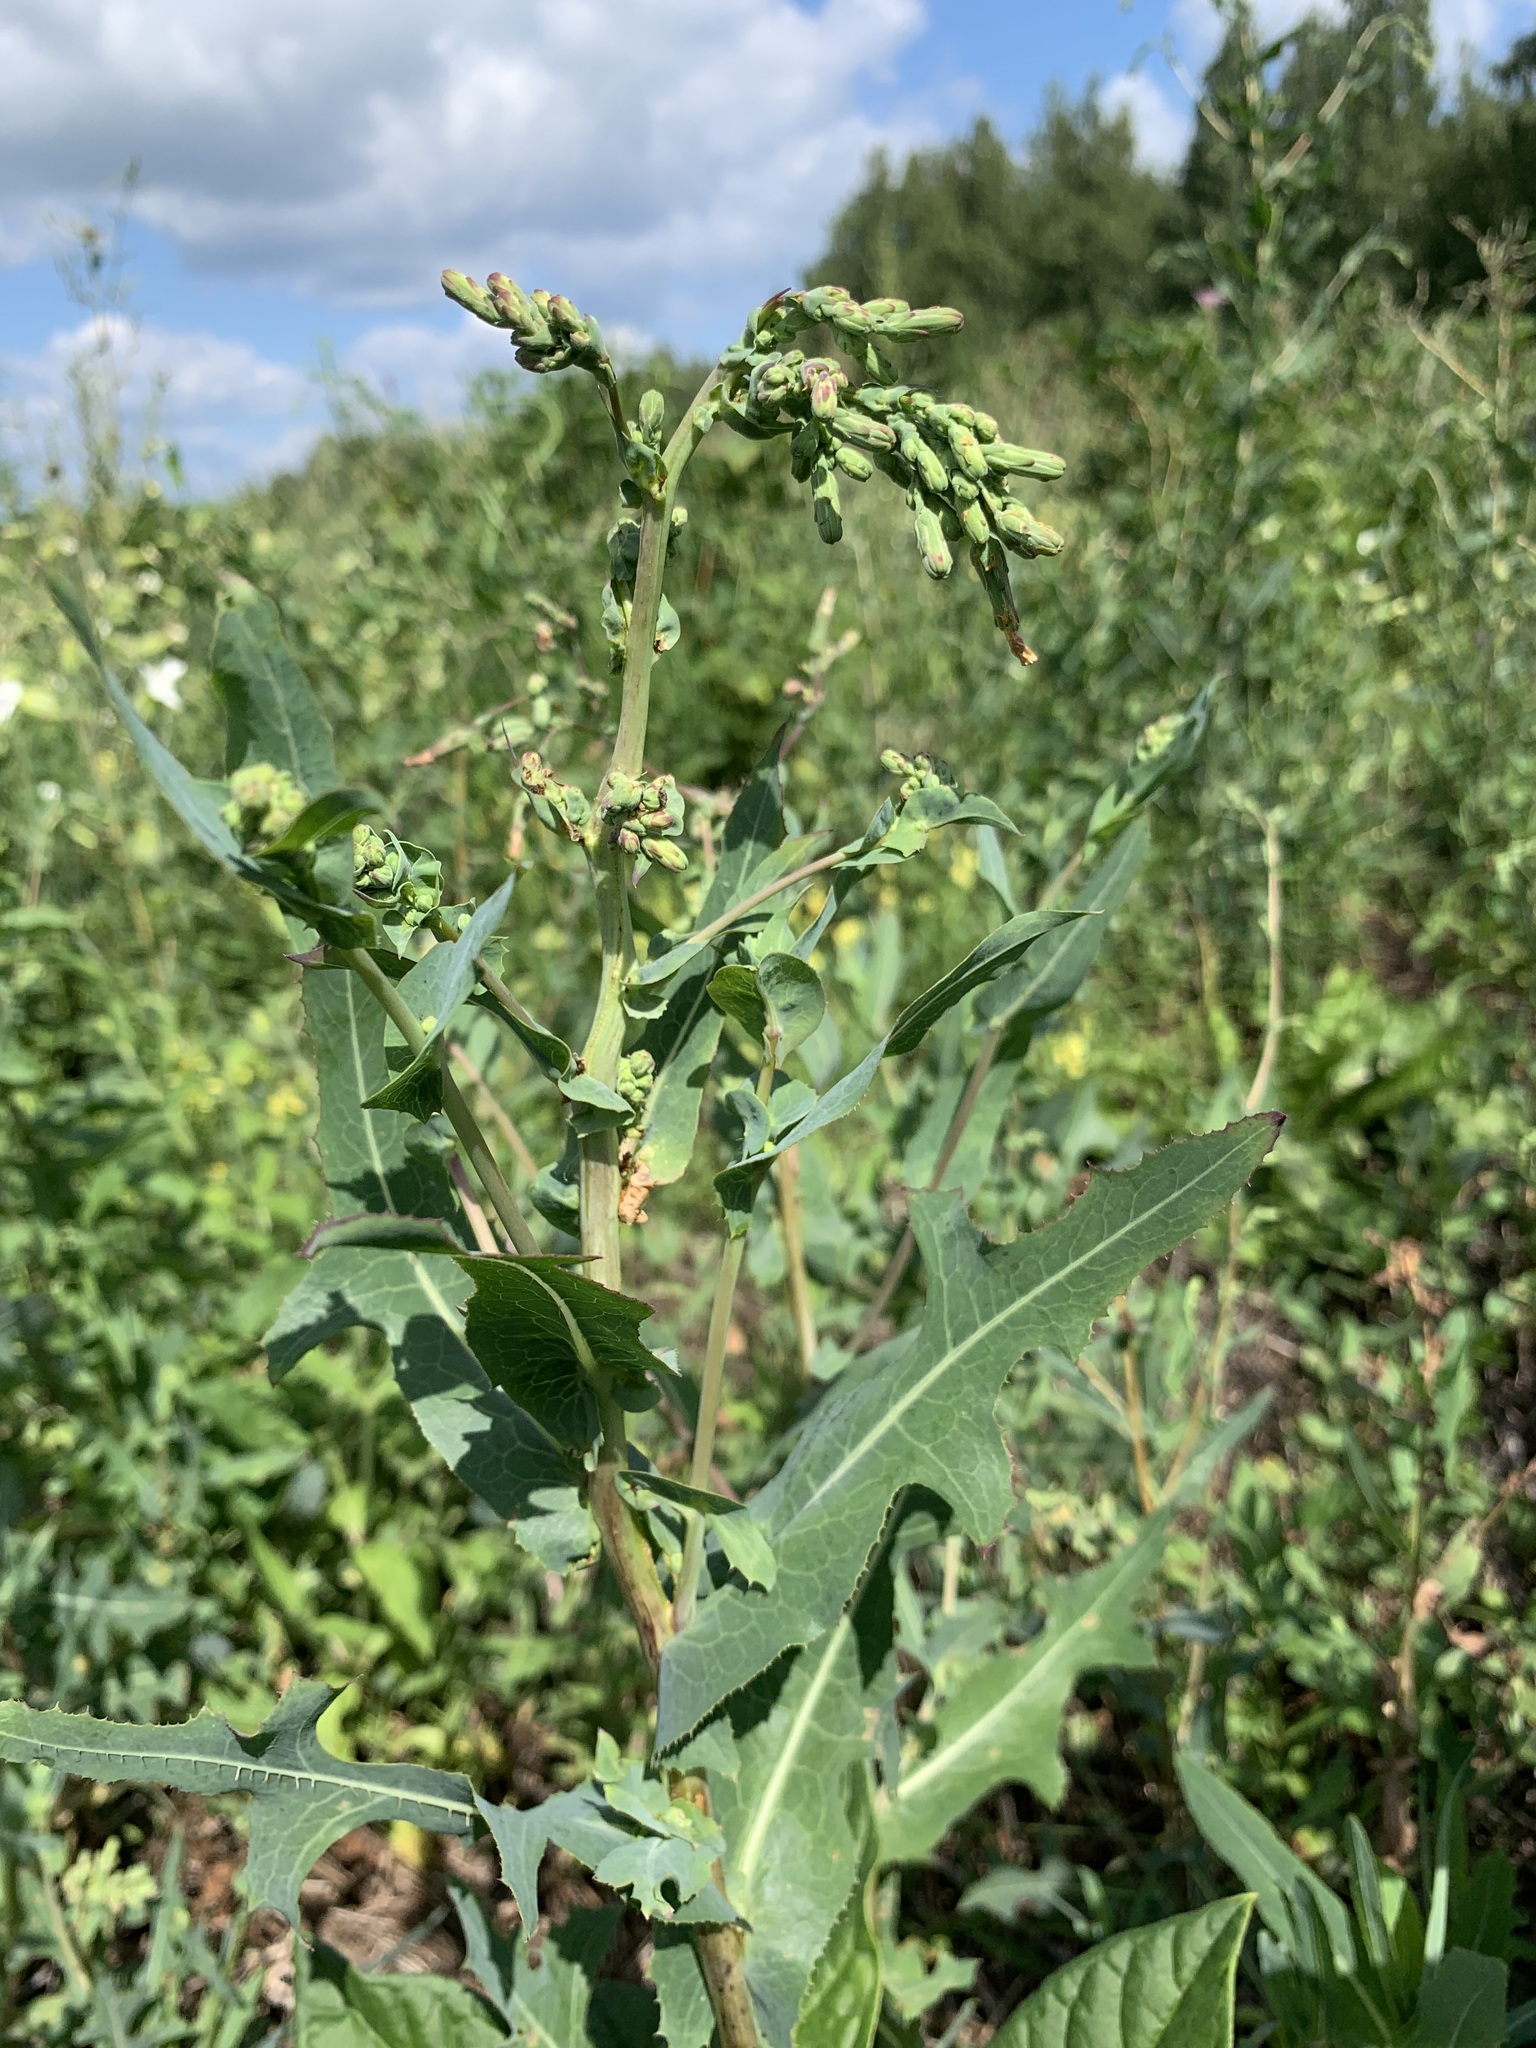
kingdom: Plantae
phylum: Tracheophyta
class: Magnoliopsida
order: Asterales
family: Asteraceae
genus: Lactuca
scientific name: Lactuca serriola
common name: Prickly lettuce
